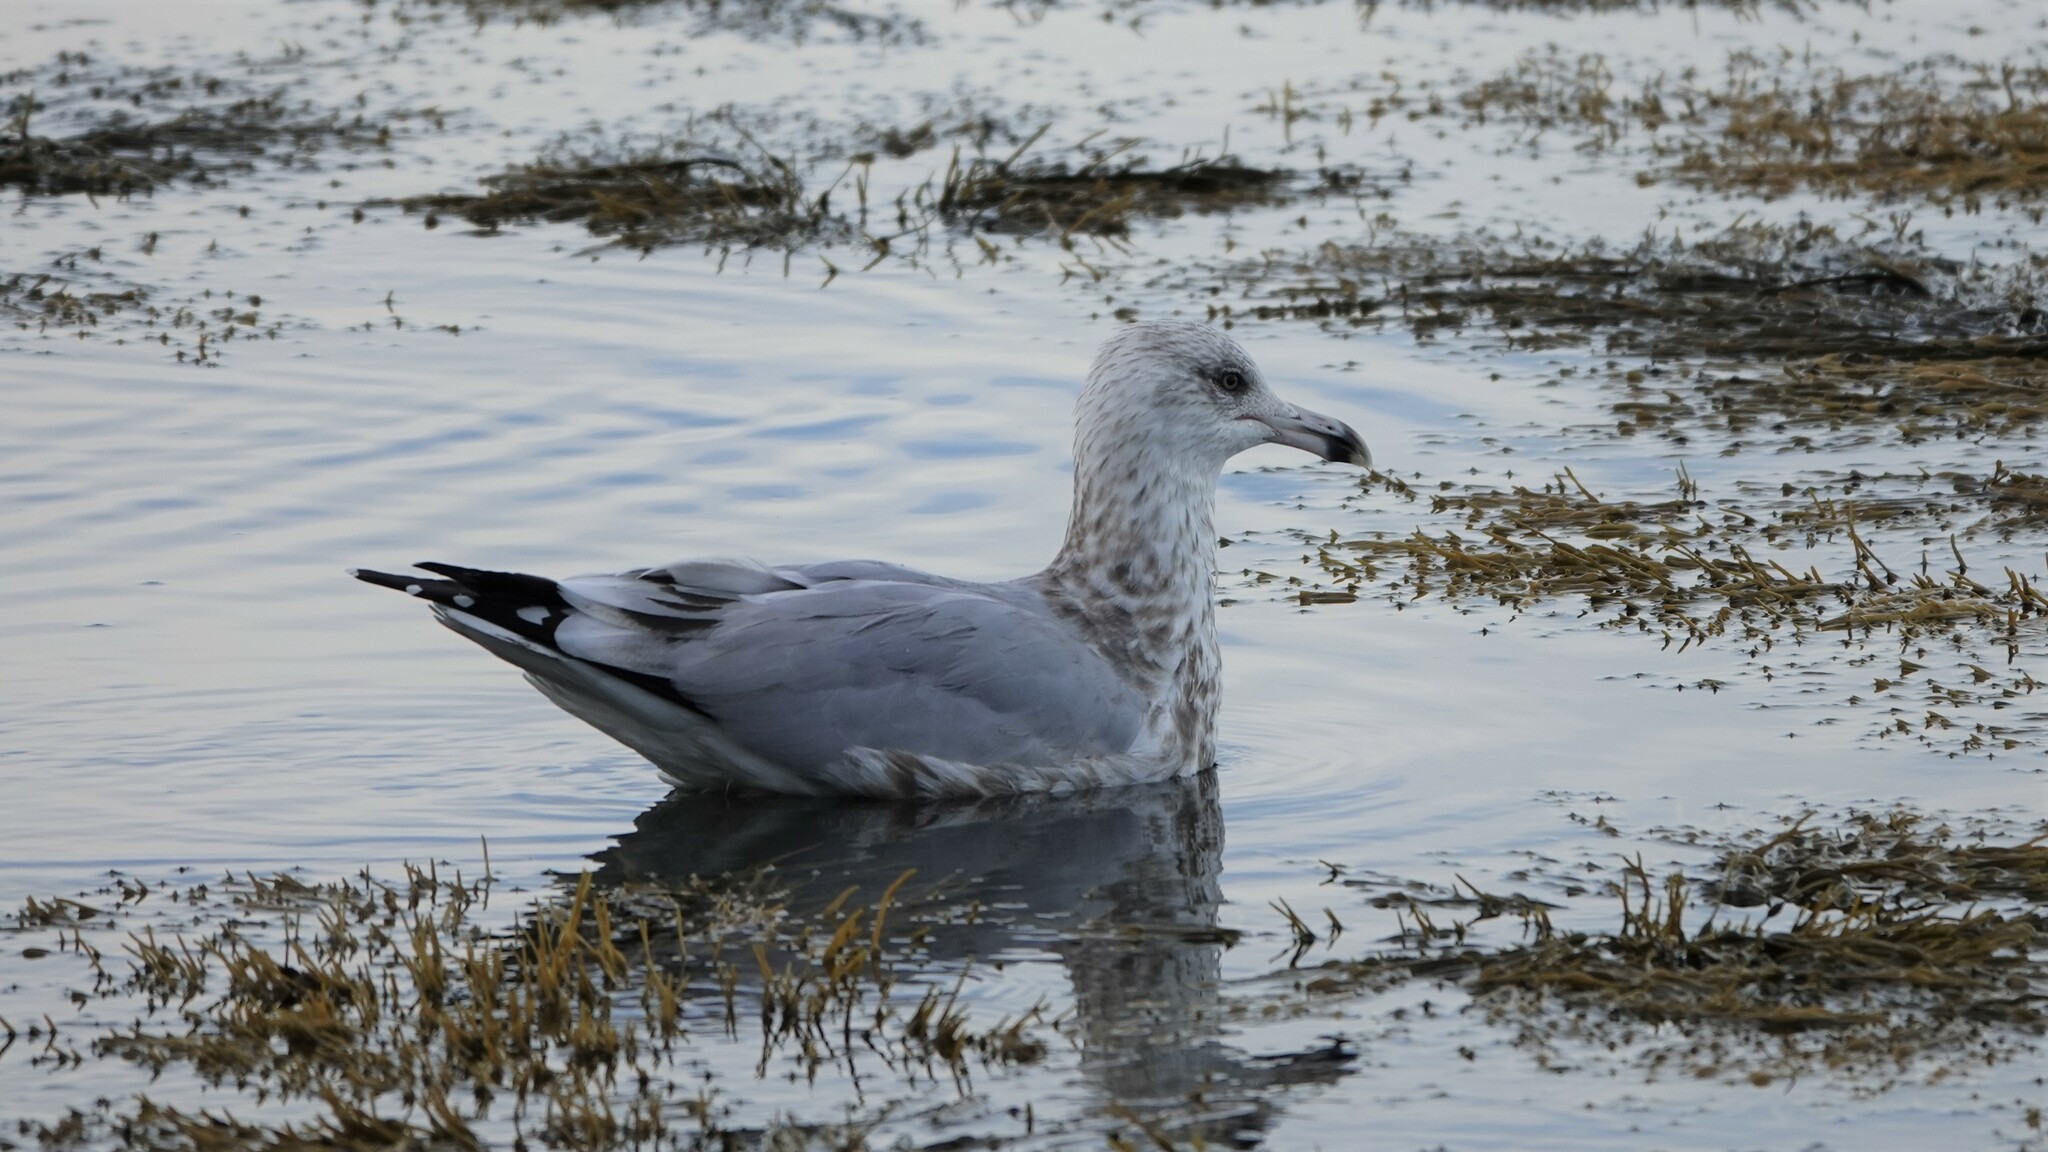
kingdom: Animalia
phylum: Chordata
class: Aves
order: Charadriiformes
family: Laridae
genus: Larus
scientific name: Larus argentatus
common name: Herring gull
